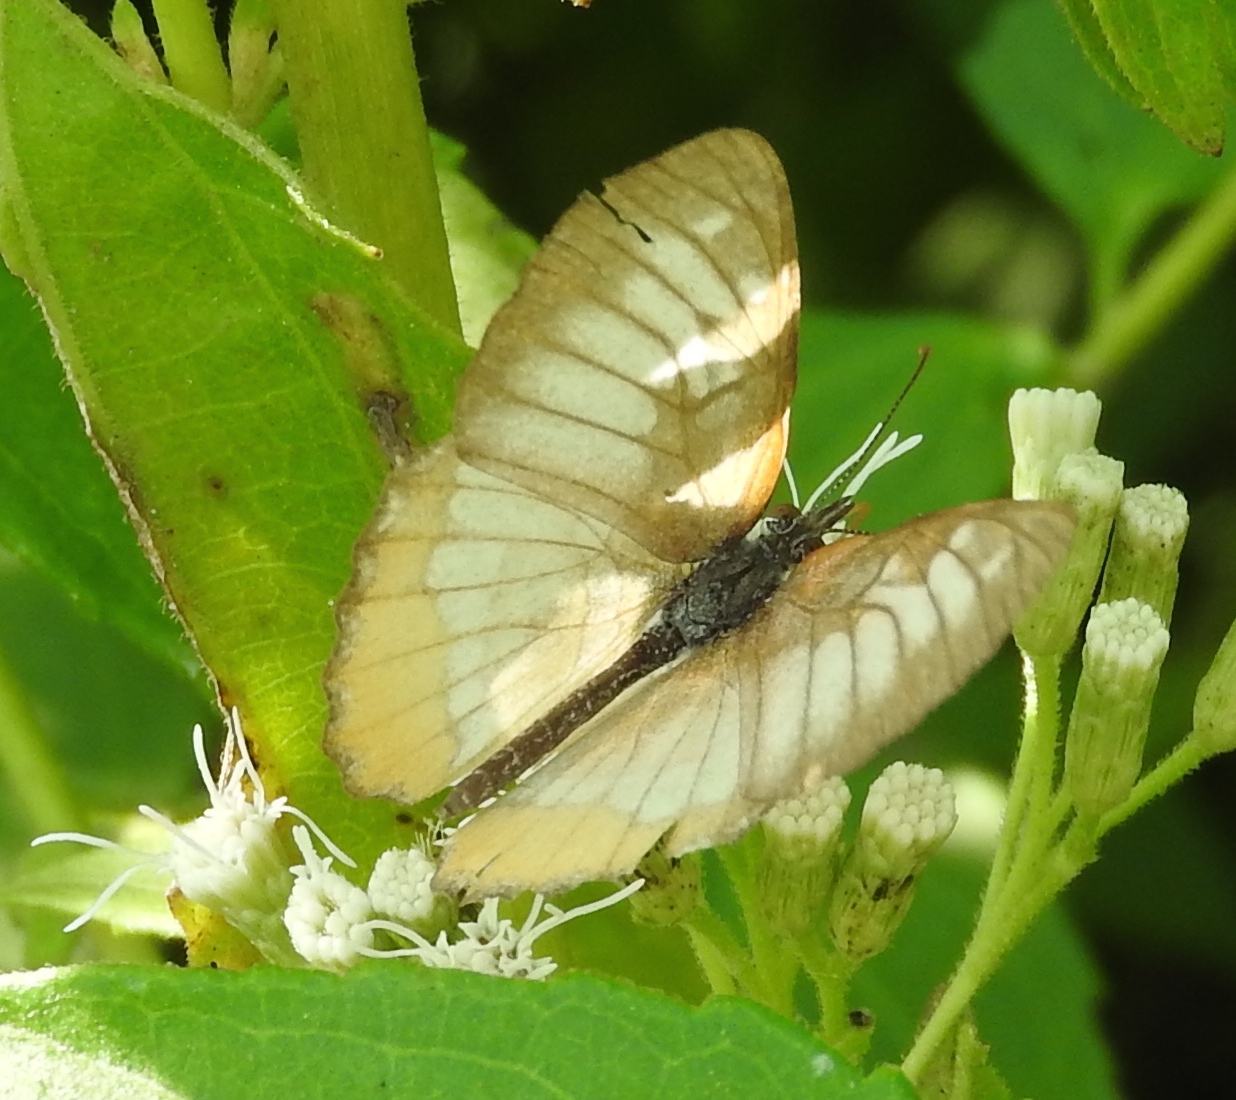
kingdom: Animalia
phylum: Arthropoda
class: Insecta
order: Lepidoptera
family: Nymphalidae
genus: Mestra
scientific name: Mestra amymone
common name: Common mestra
